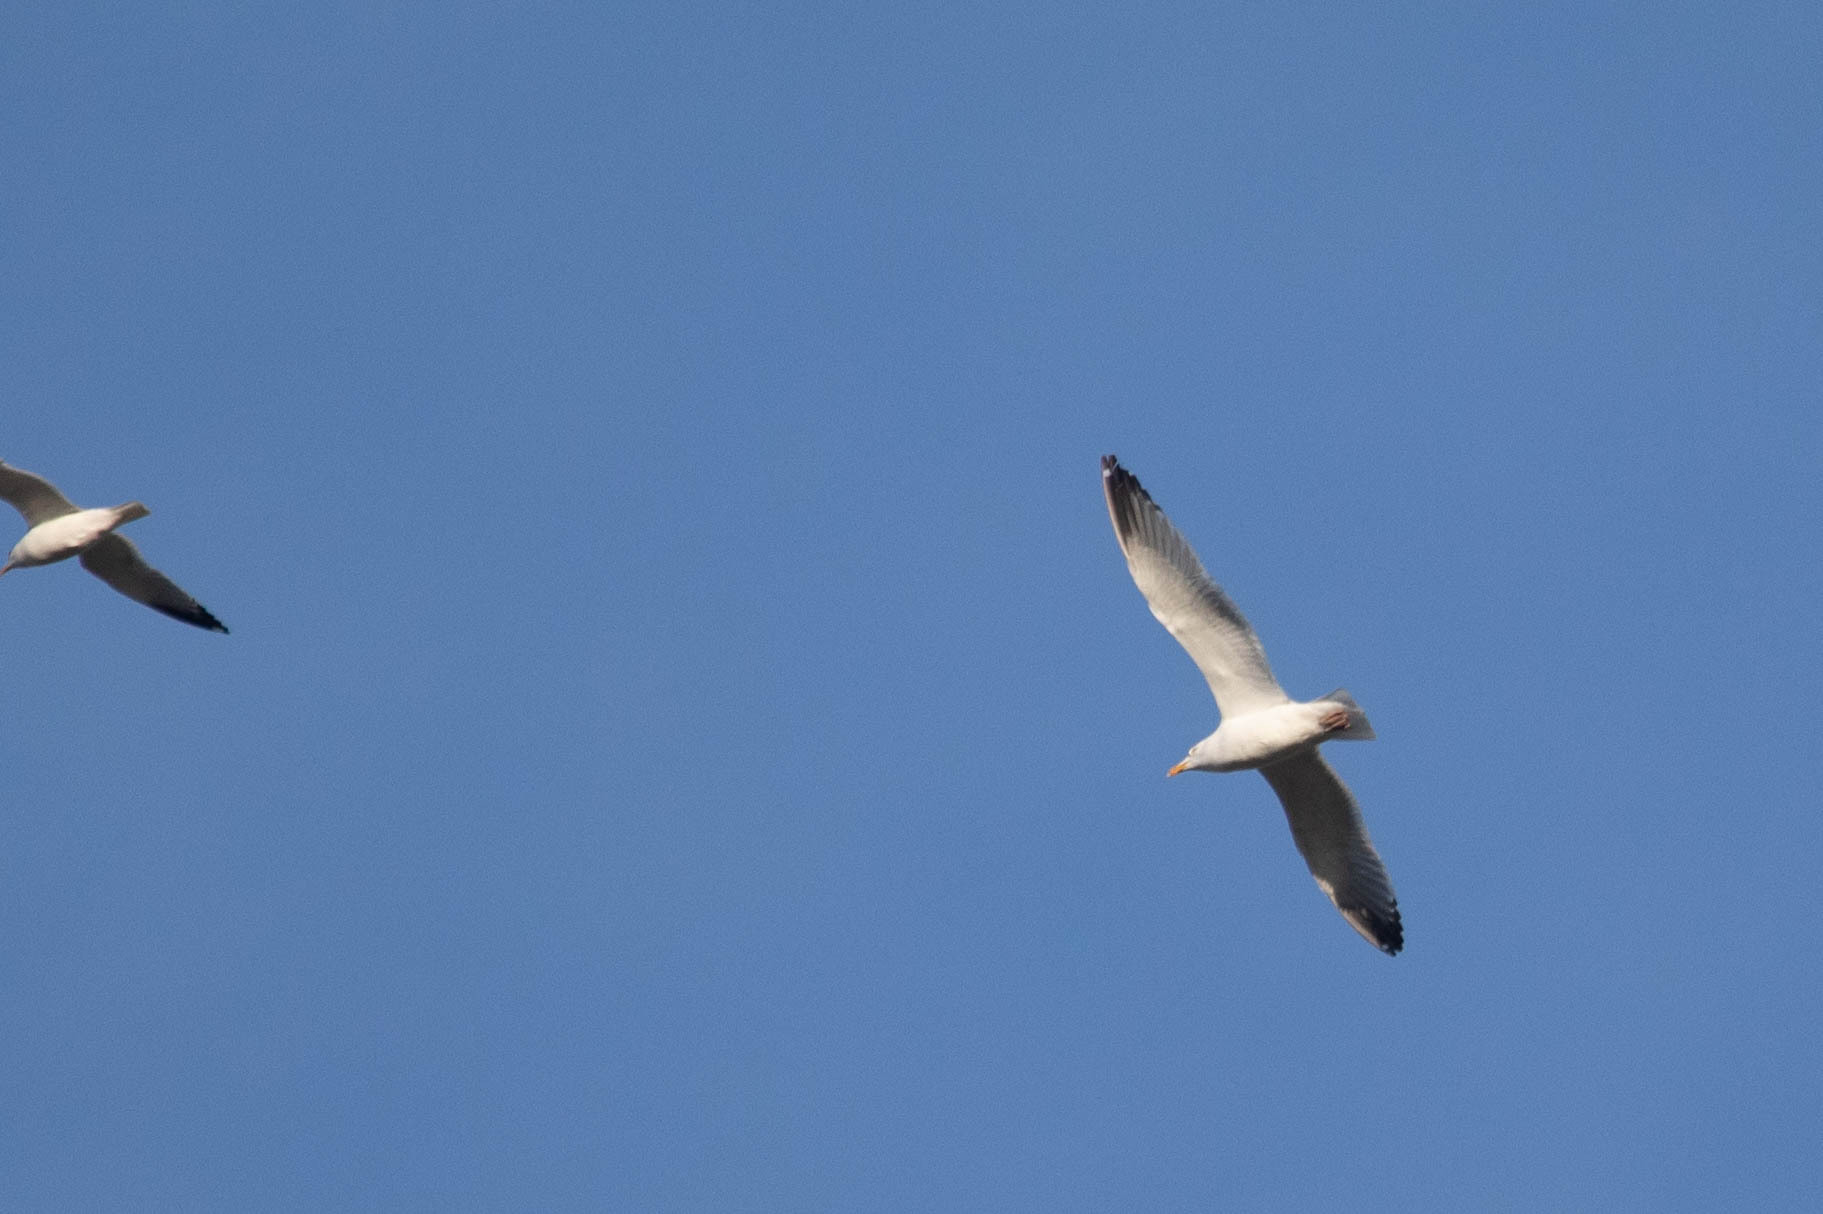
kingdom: Animalia
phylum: Chordata
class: Aves
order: Charadriiformes
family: Laridae
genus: Larus
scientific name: Larus argentatus
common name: Herring gull
